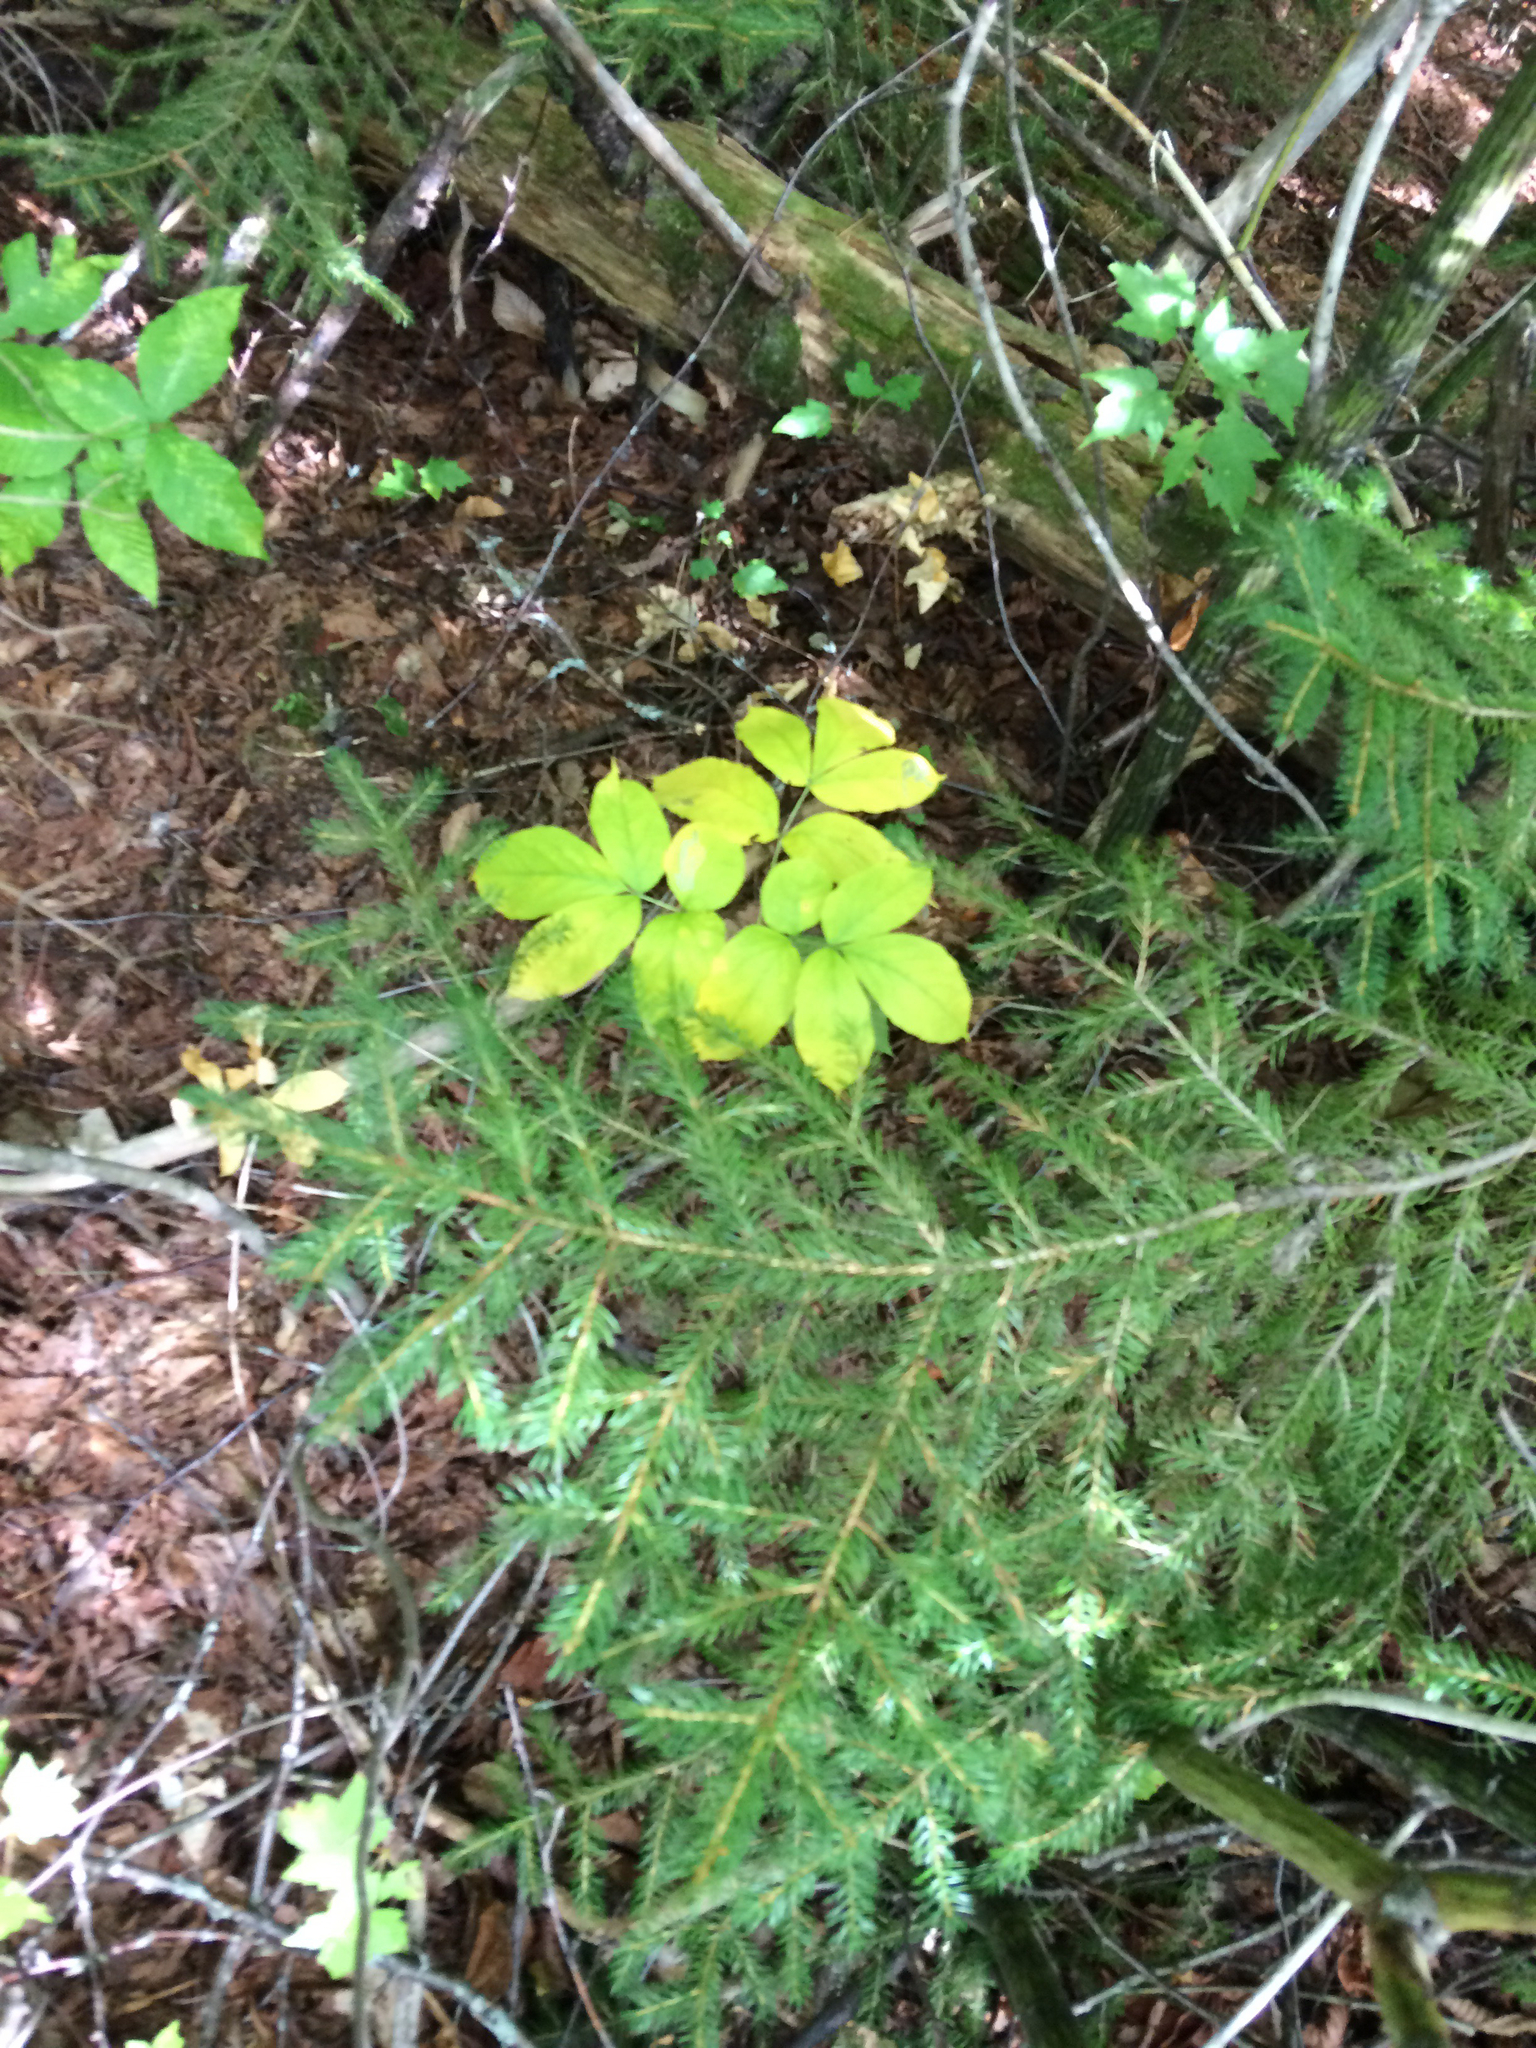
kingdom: Plantae
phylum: Tracheophyta
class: Magnoliopsida
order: Apiales
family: Araliaceae
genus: Aralia
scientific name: Aralia nudicaulis
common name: Wild sarsaparilla
